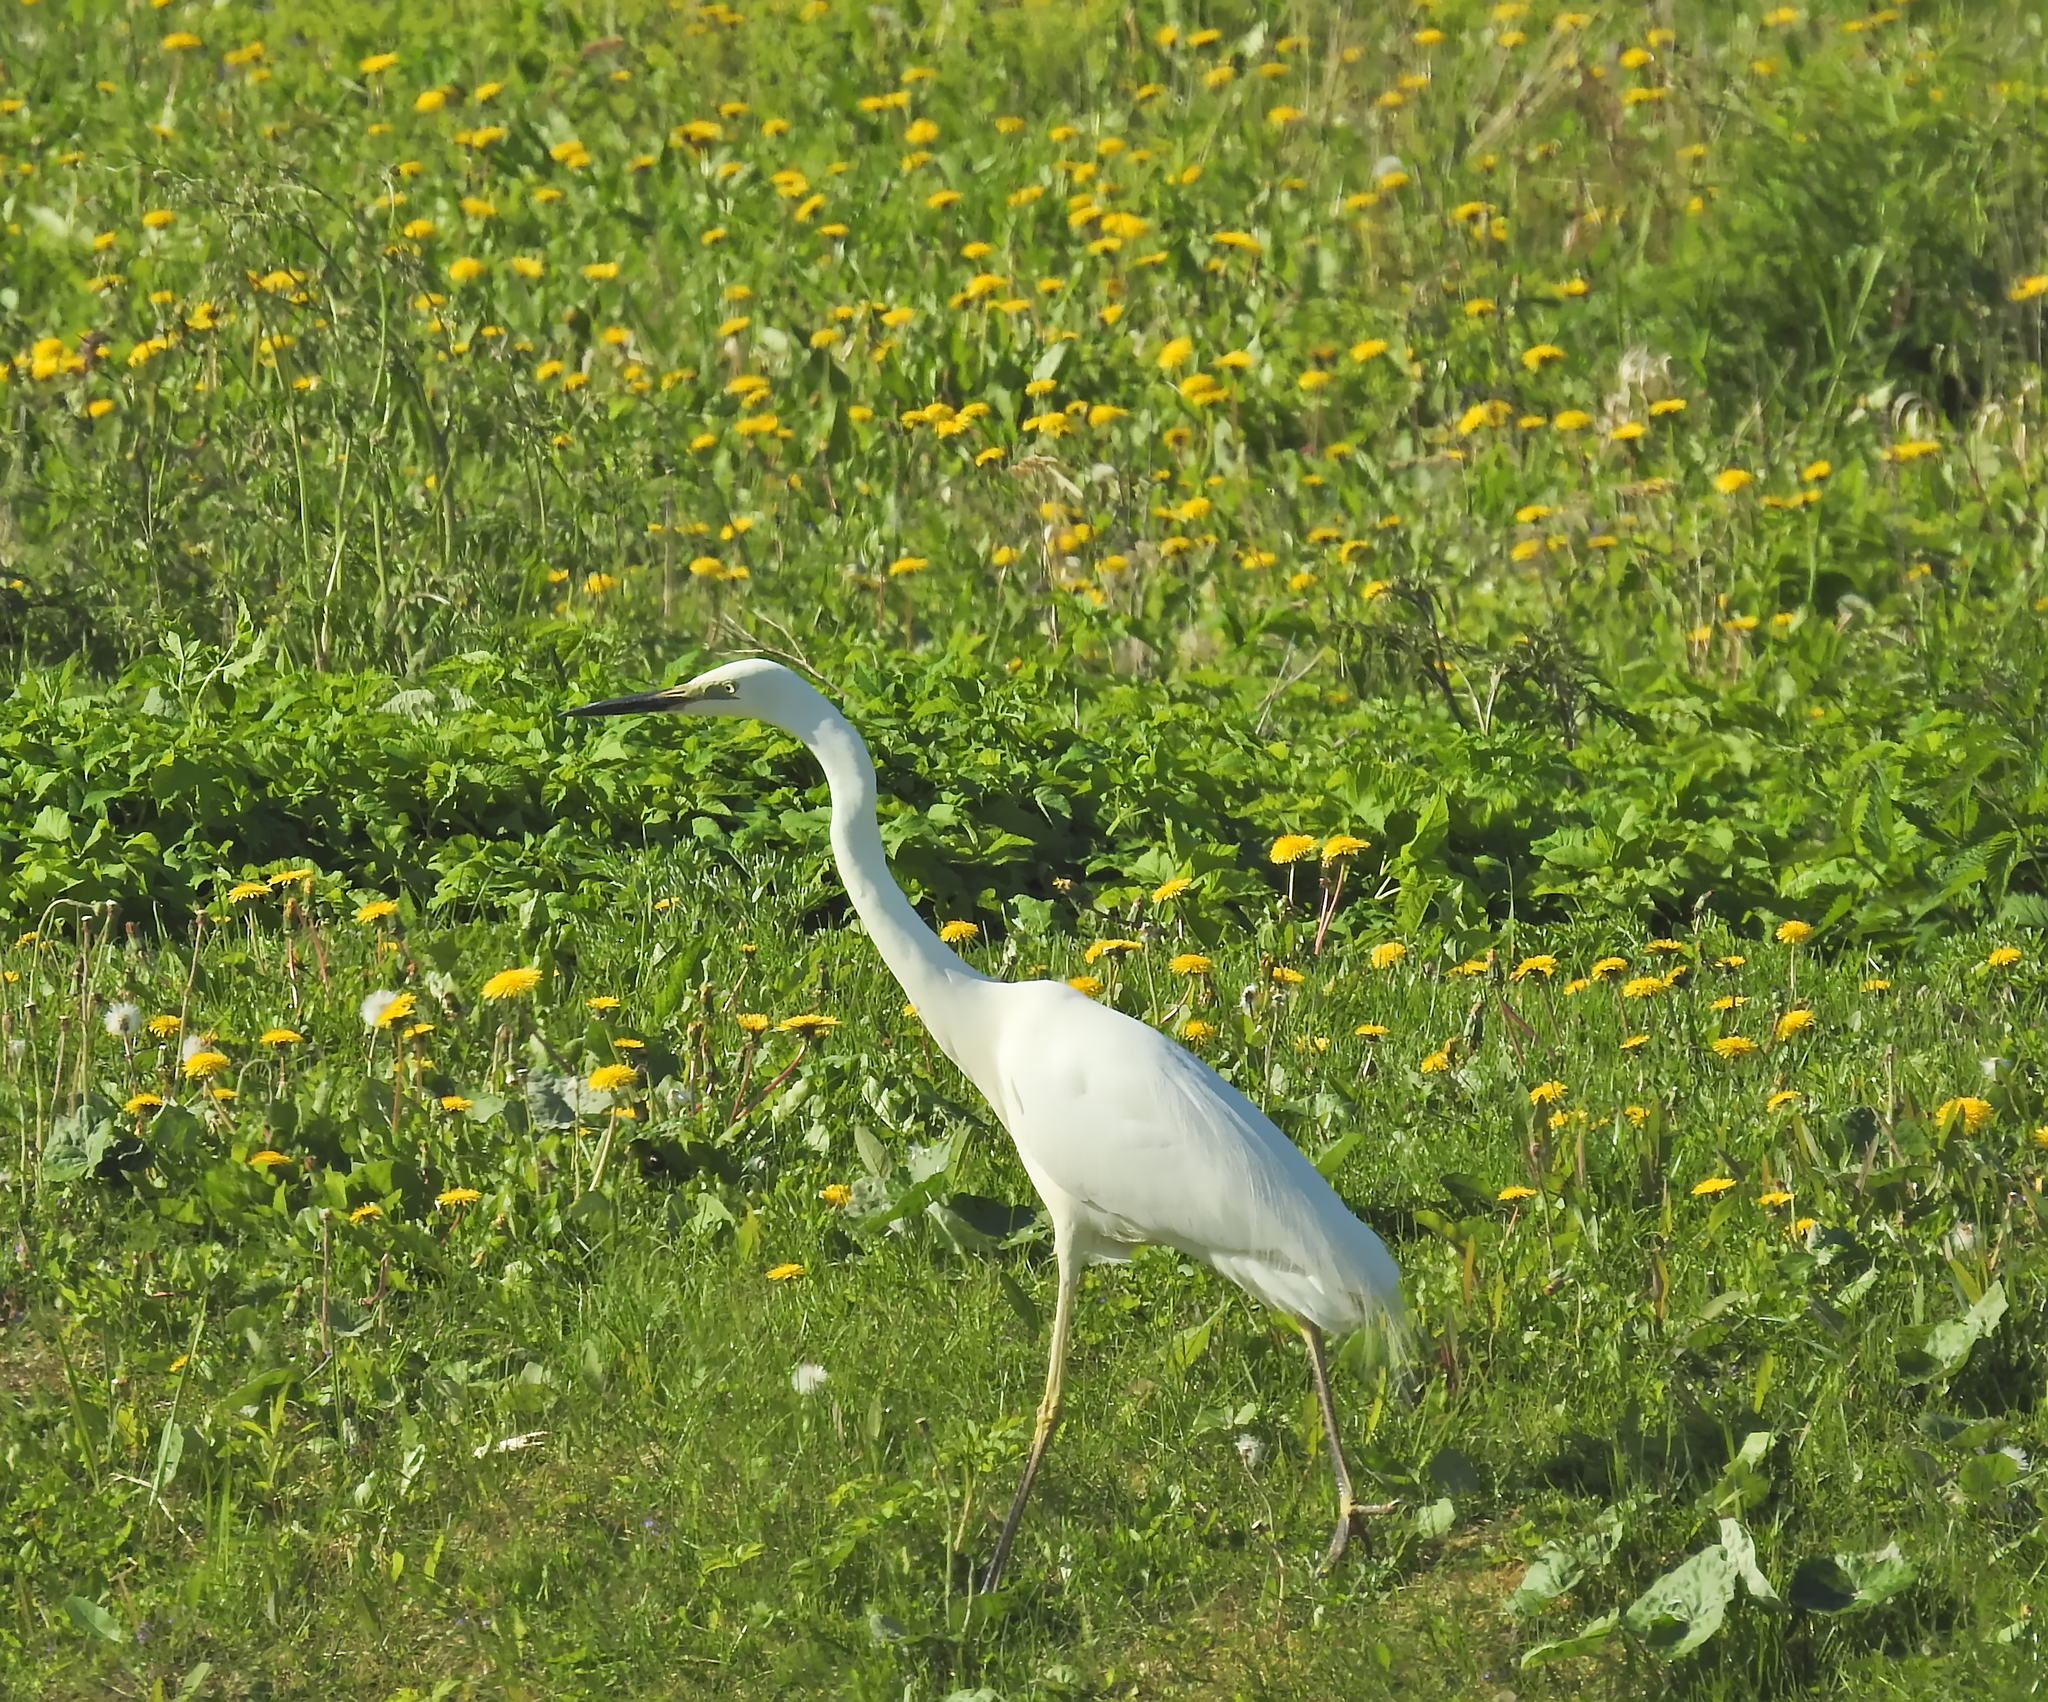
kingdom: Animalia
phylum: Chordata
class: Aves
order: Pelecaniformes
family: Ardeidae
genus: Ardea
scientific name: Ardea alba
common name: Great egret
